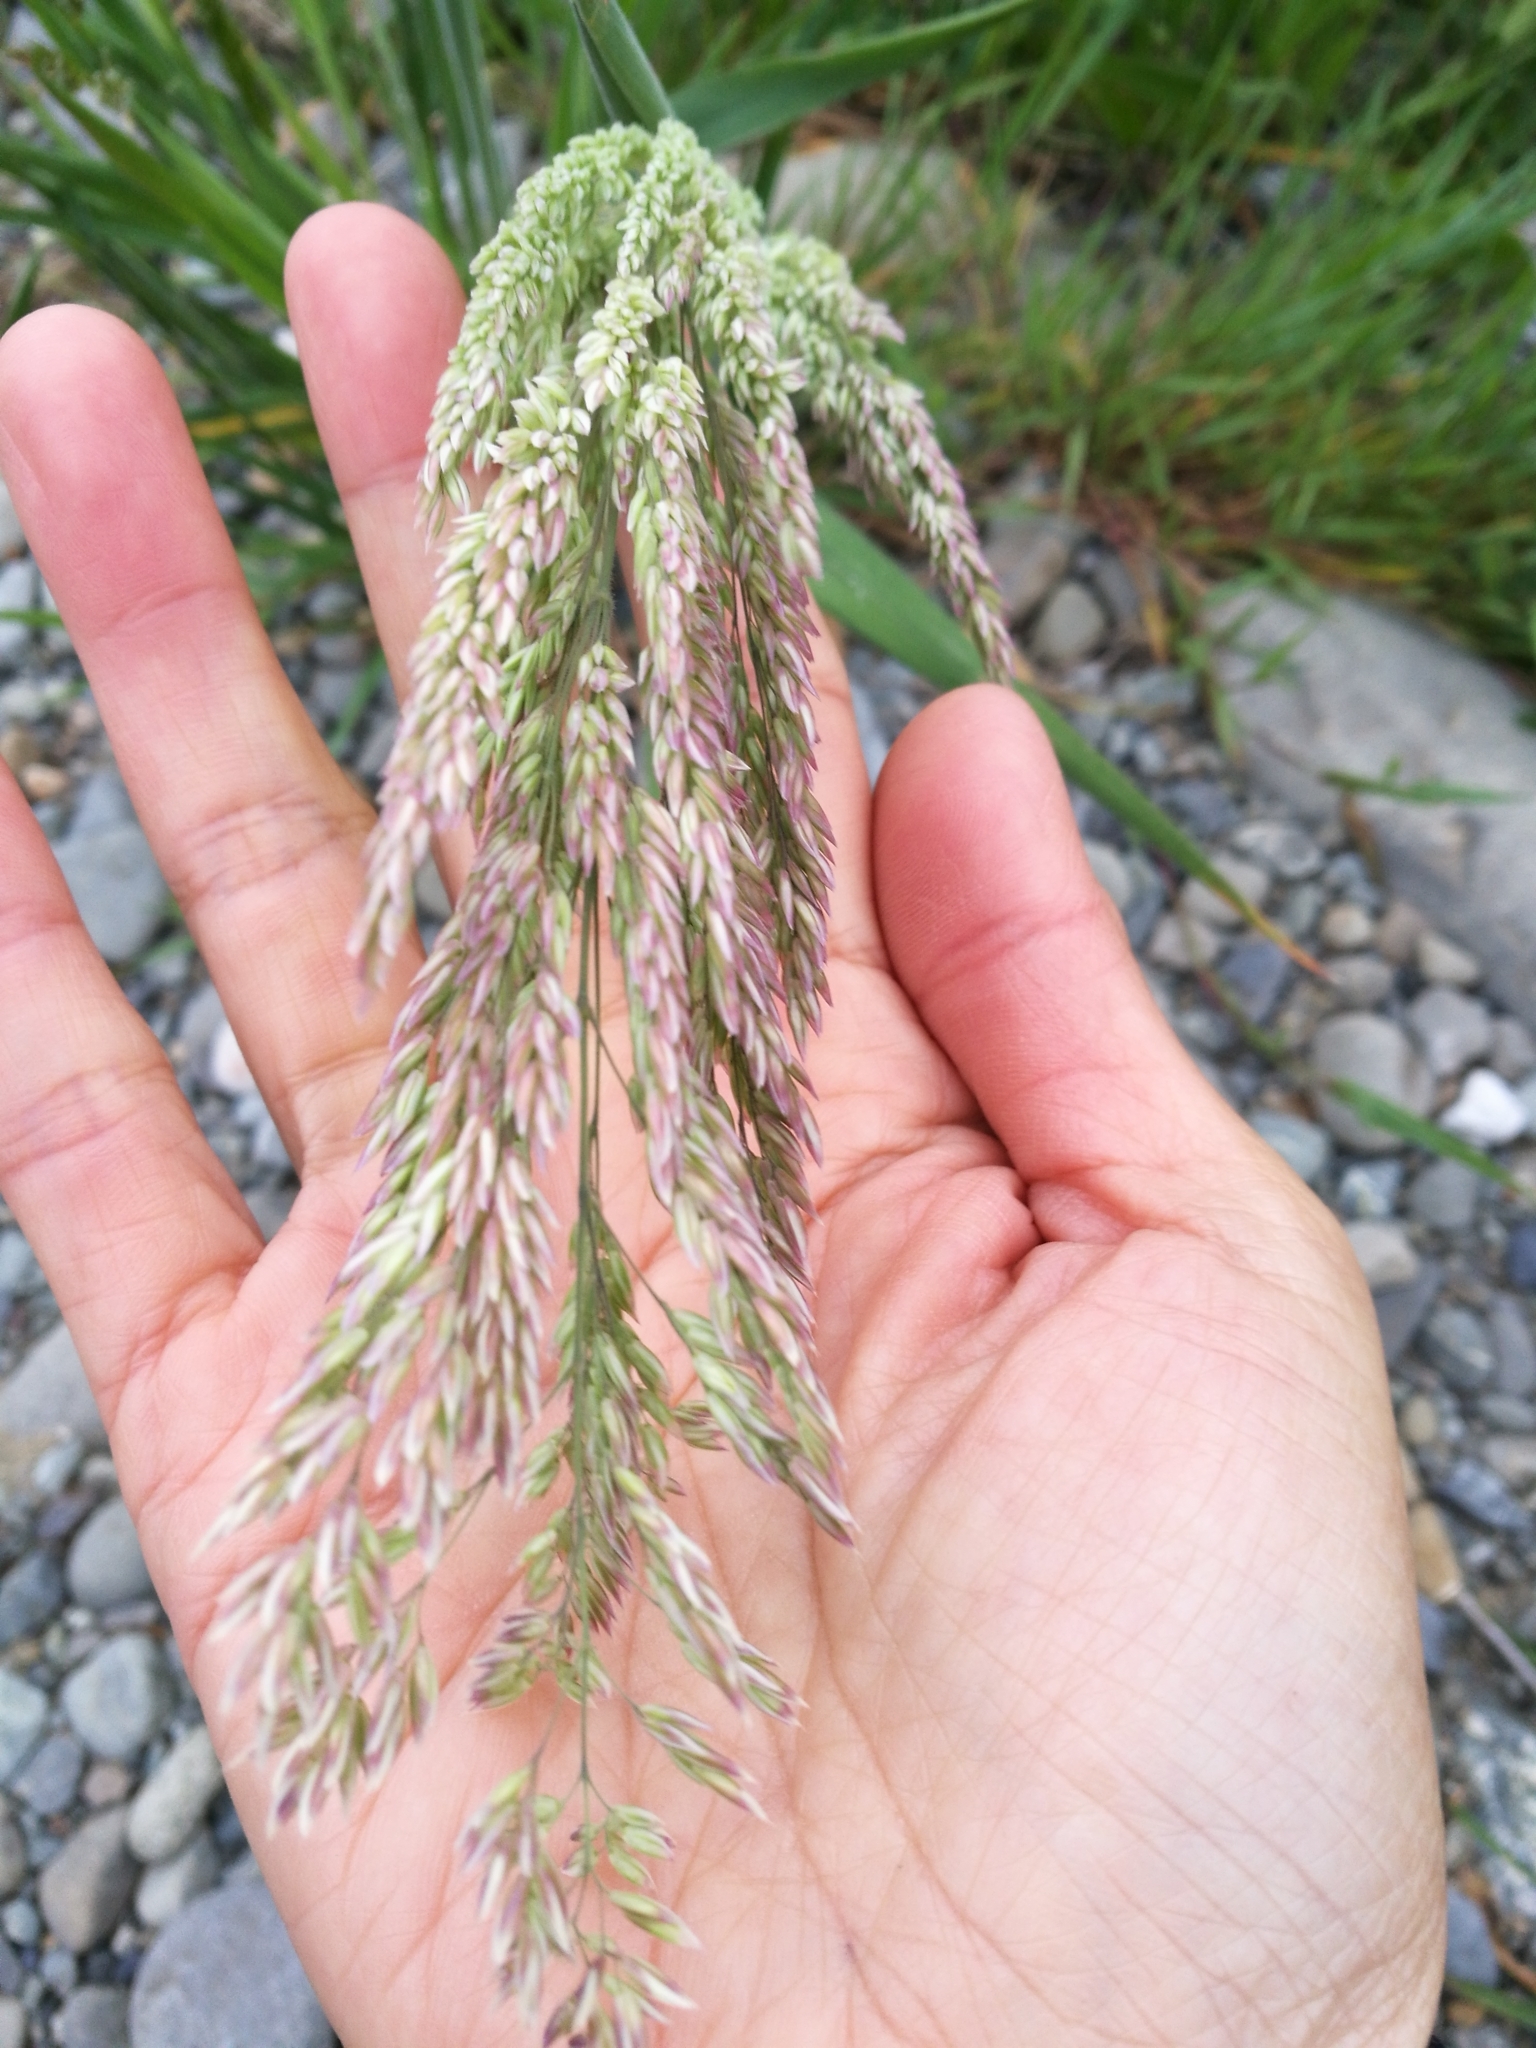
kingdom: Plantae
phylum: Tracheophyta
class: Liliopsida
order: Poales
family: Poaceae
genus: Holcus
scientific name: Holcus lanatus
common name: Yorkshire-fog
